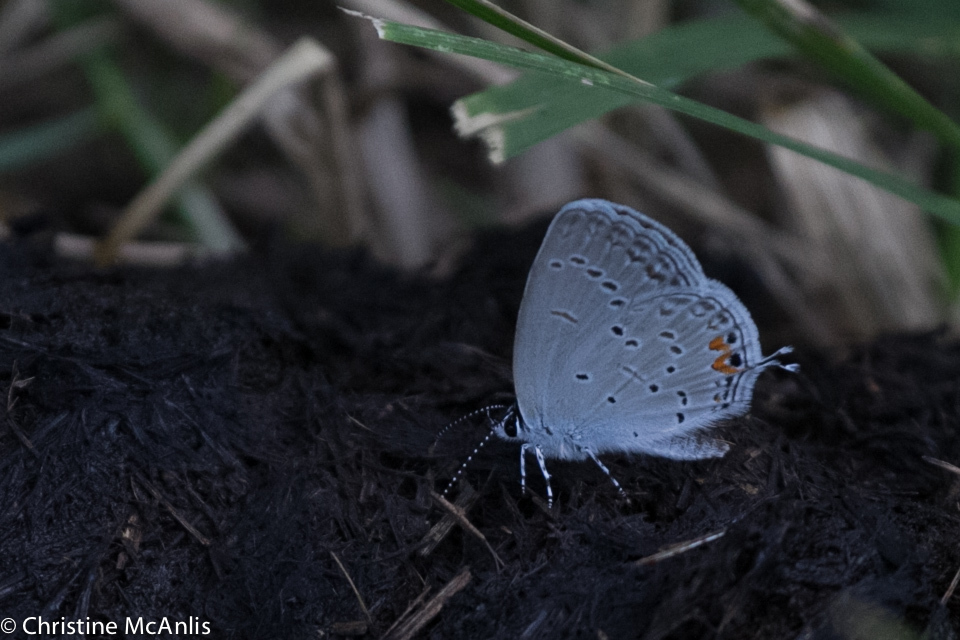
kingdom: Animalia
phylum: Arthropoda
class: Insecta
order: Lepidoptera
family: Lycaenidae
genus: Elkalyce
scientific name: Elkalyce comyntas
